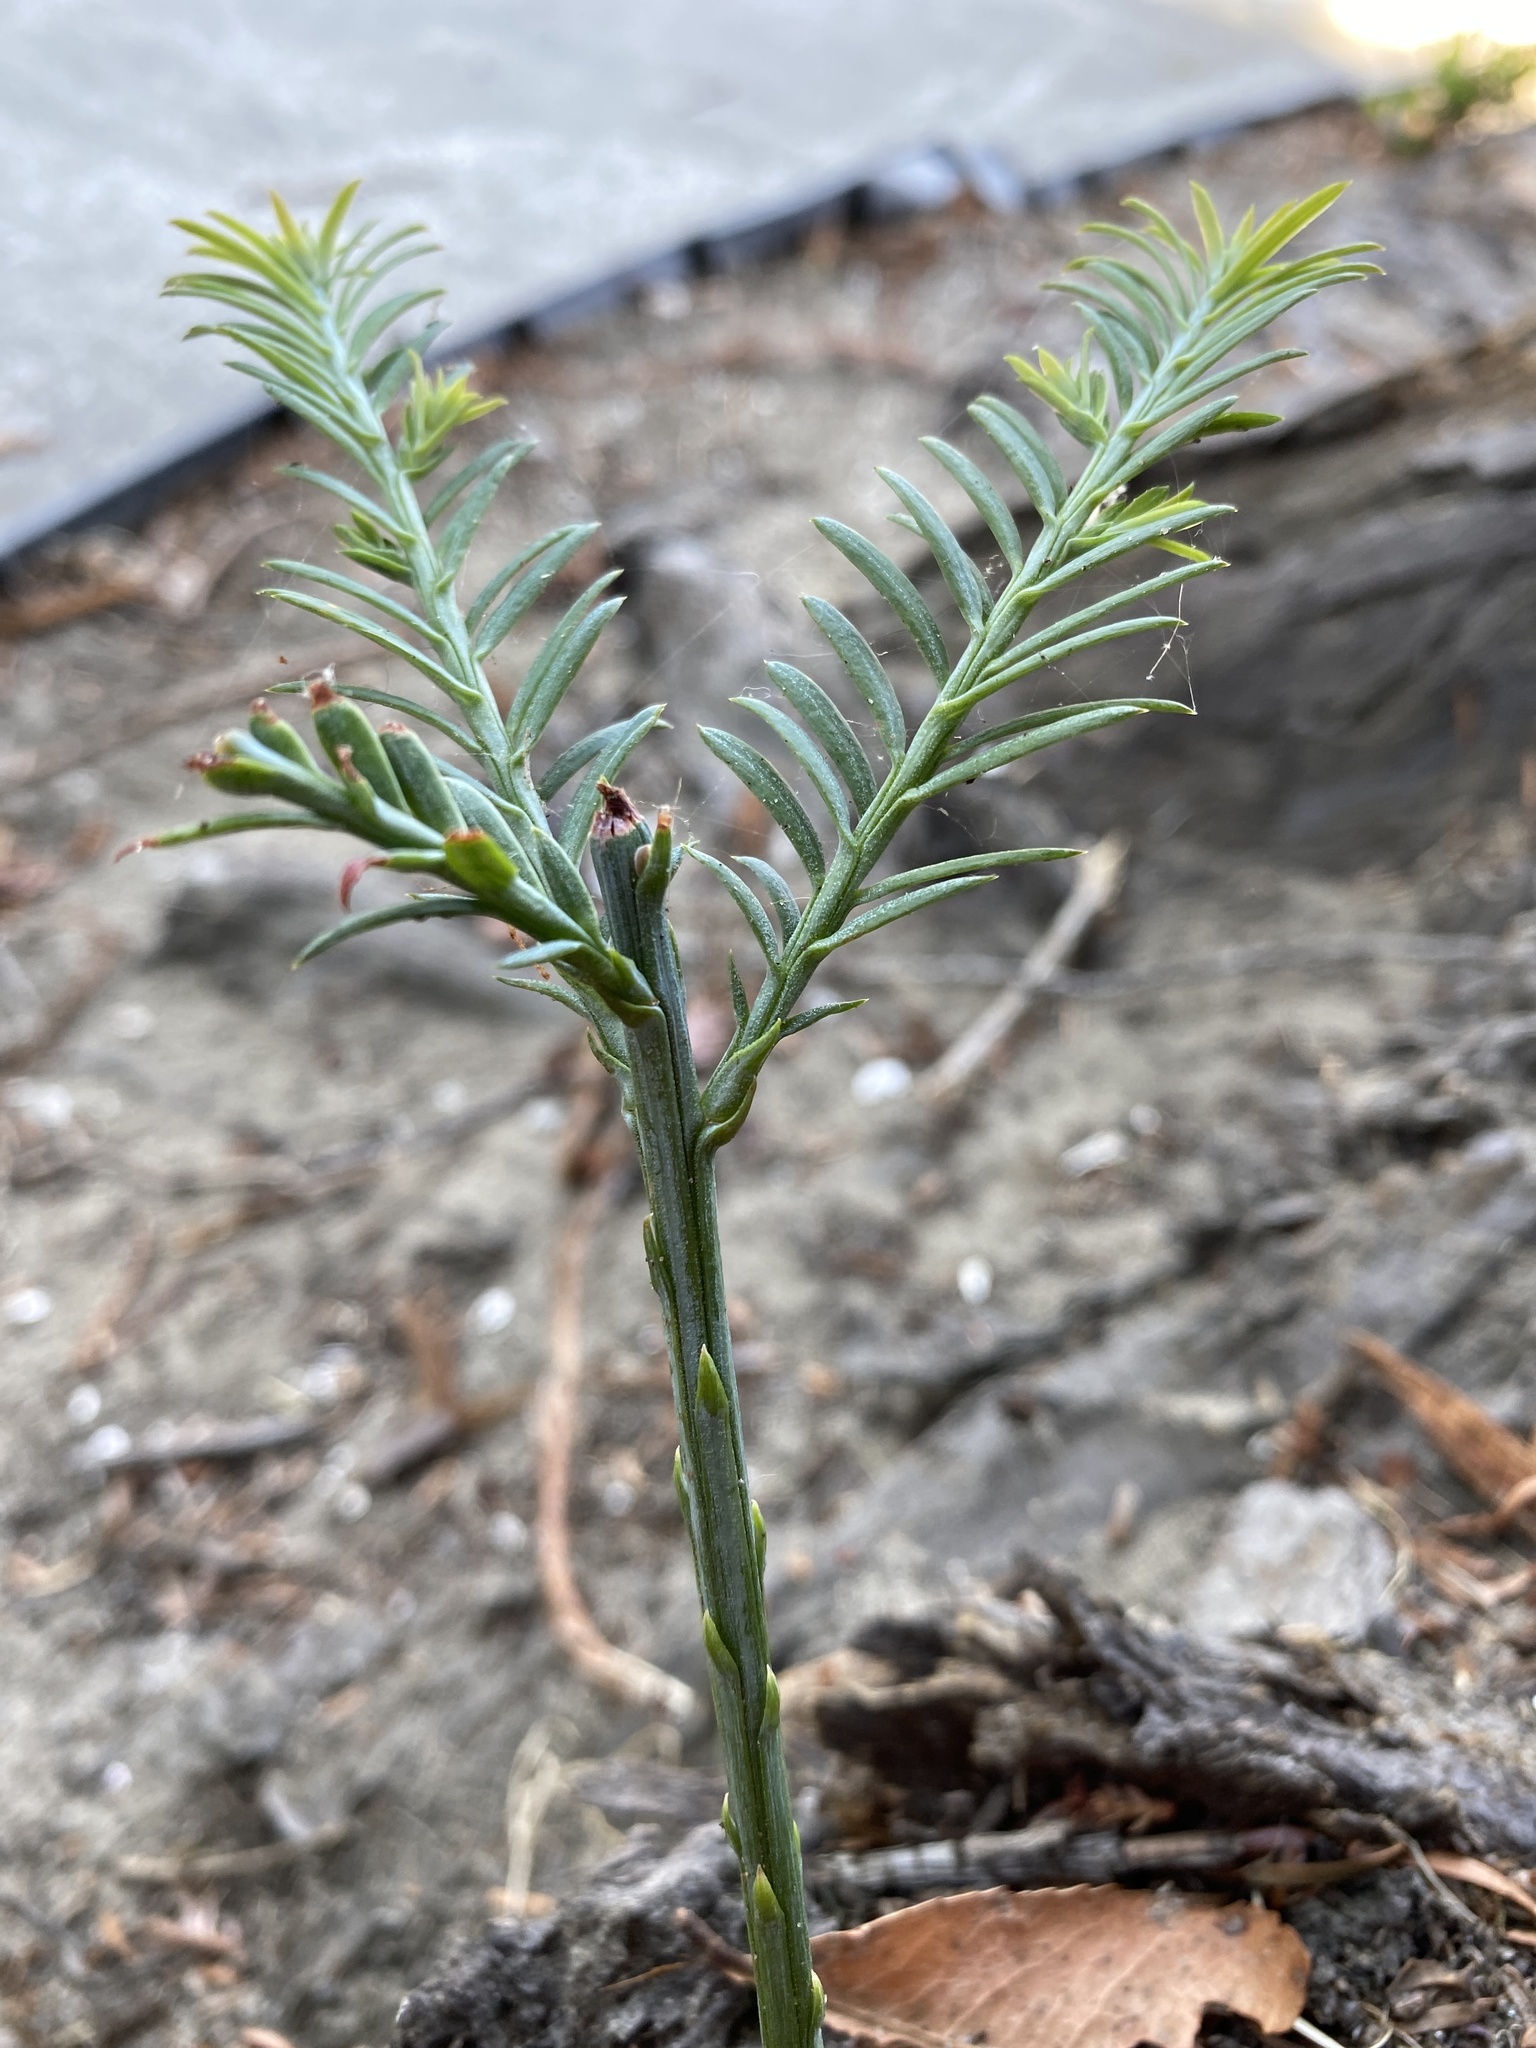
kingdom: Plantae
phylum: Tracheophyta
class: Pinopsida
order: Pinales
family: Cupressaceae
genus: Sequoia
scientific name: Sequoia sempervirens
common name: Coast redwood
